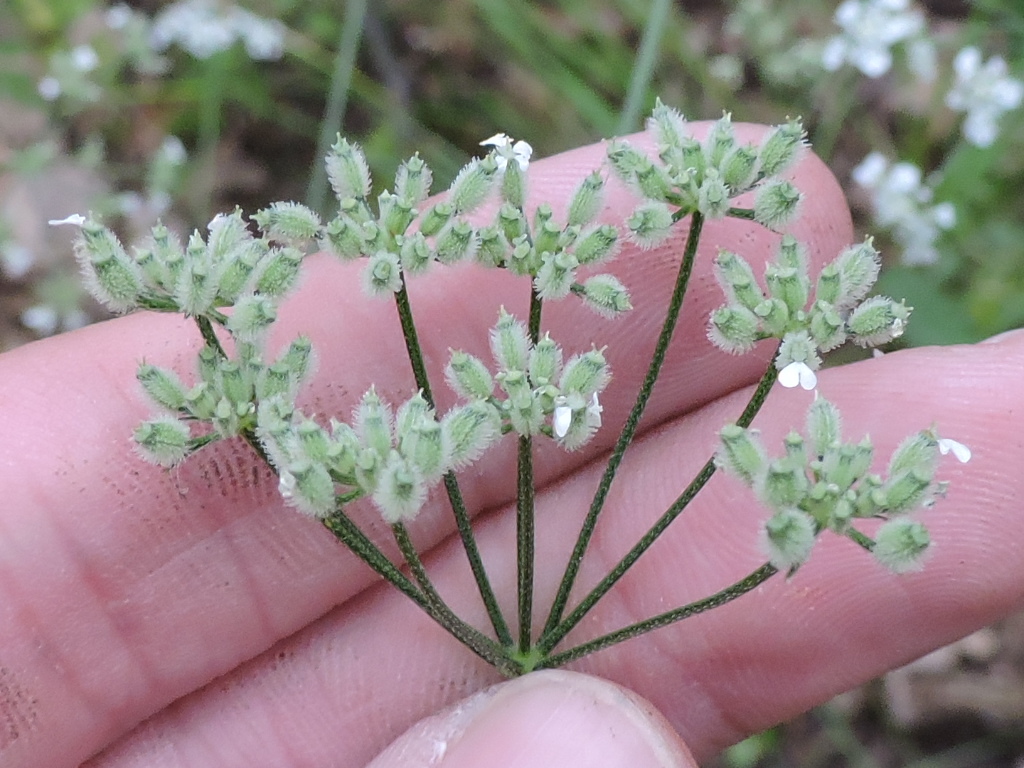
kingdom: Plantae
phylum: Tracheophyta
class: Magnoliopsida
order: Apiales
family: Apiaceae
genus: Torilis
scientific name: Torilis arvensis
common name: Spreading hedge-parsley
